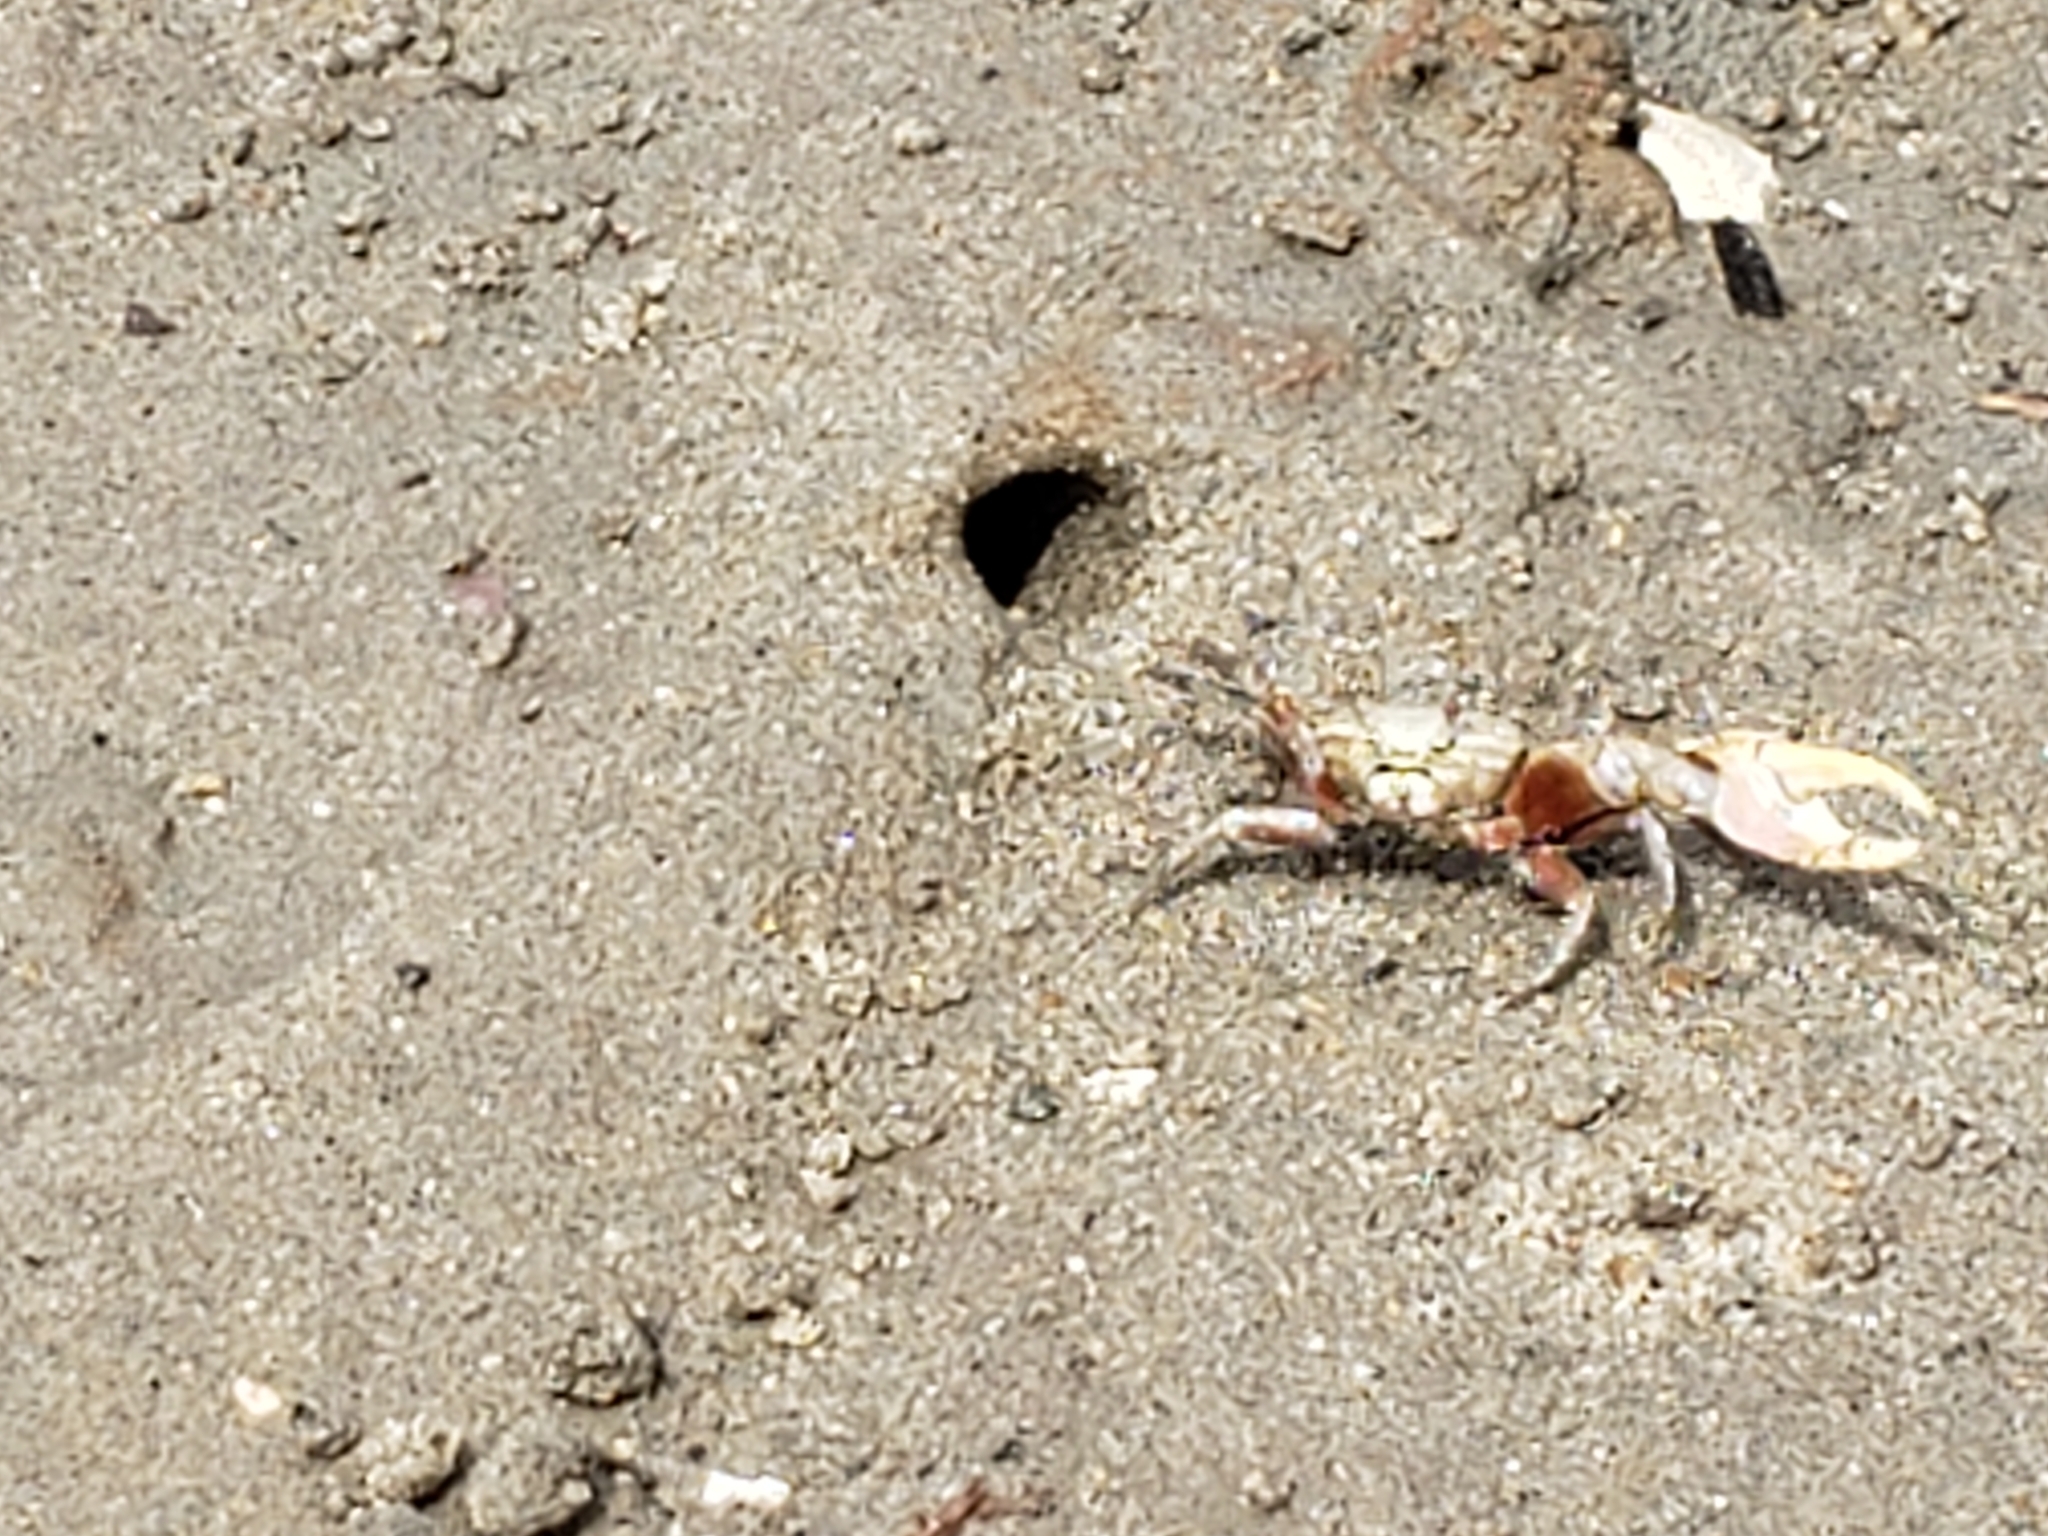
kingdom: Animalia
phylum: Arthropoda
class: Malacostraca
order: Decapoda
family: Ocypodidae
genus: Leptuca
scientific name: Leptuca crenulata
